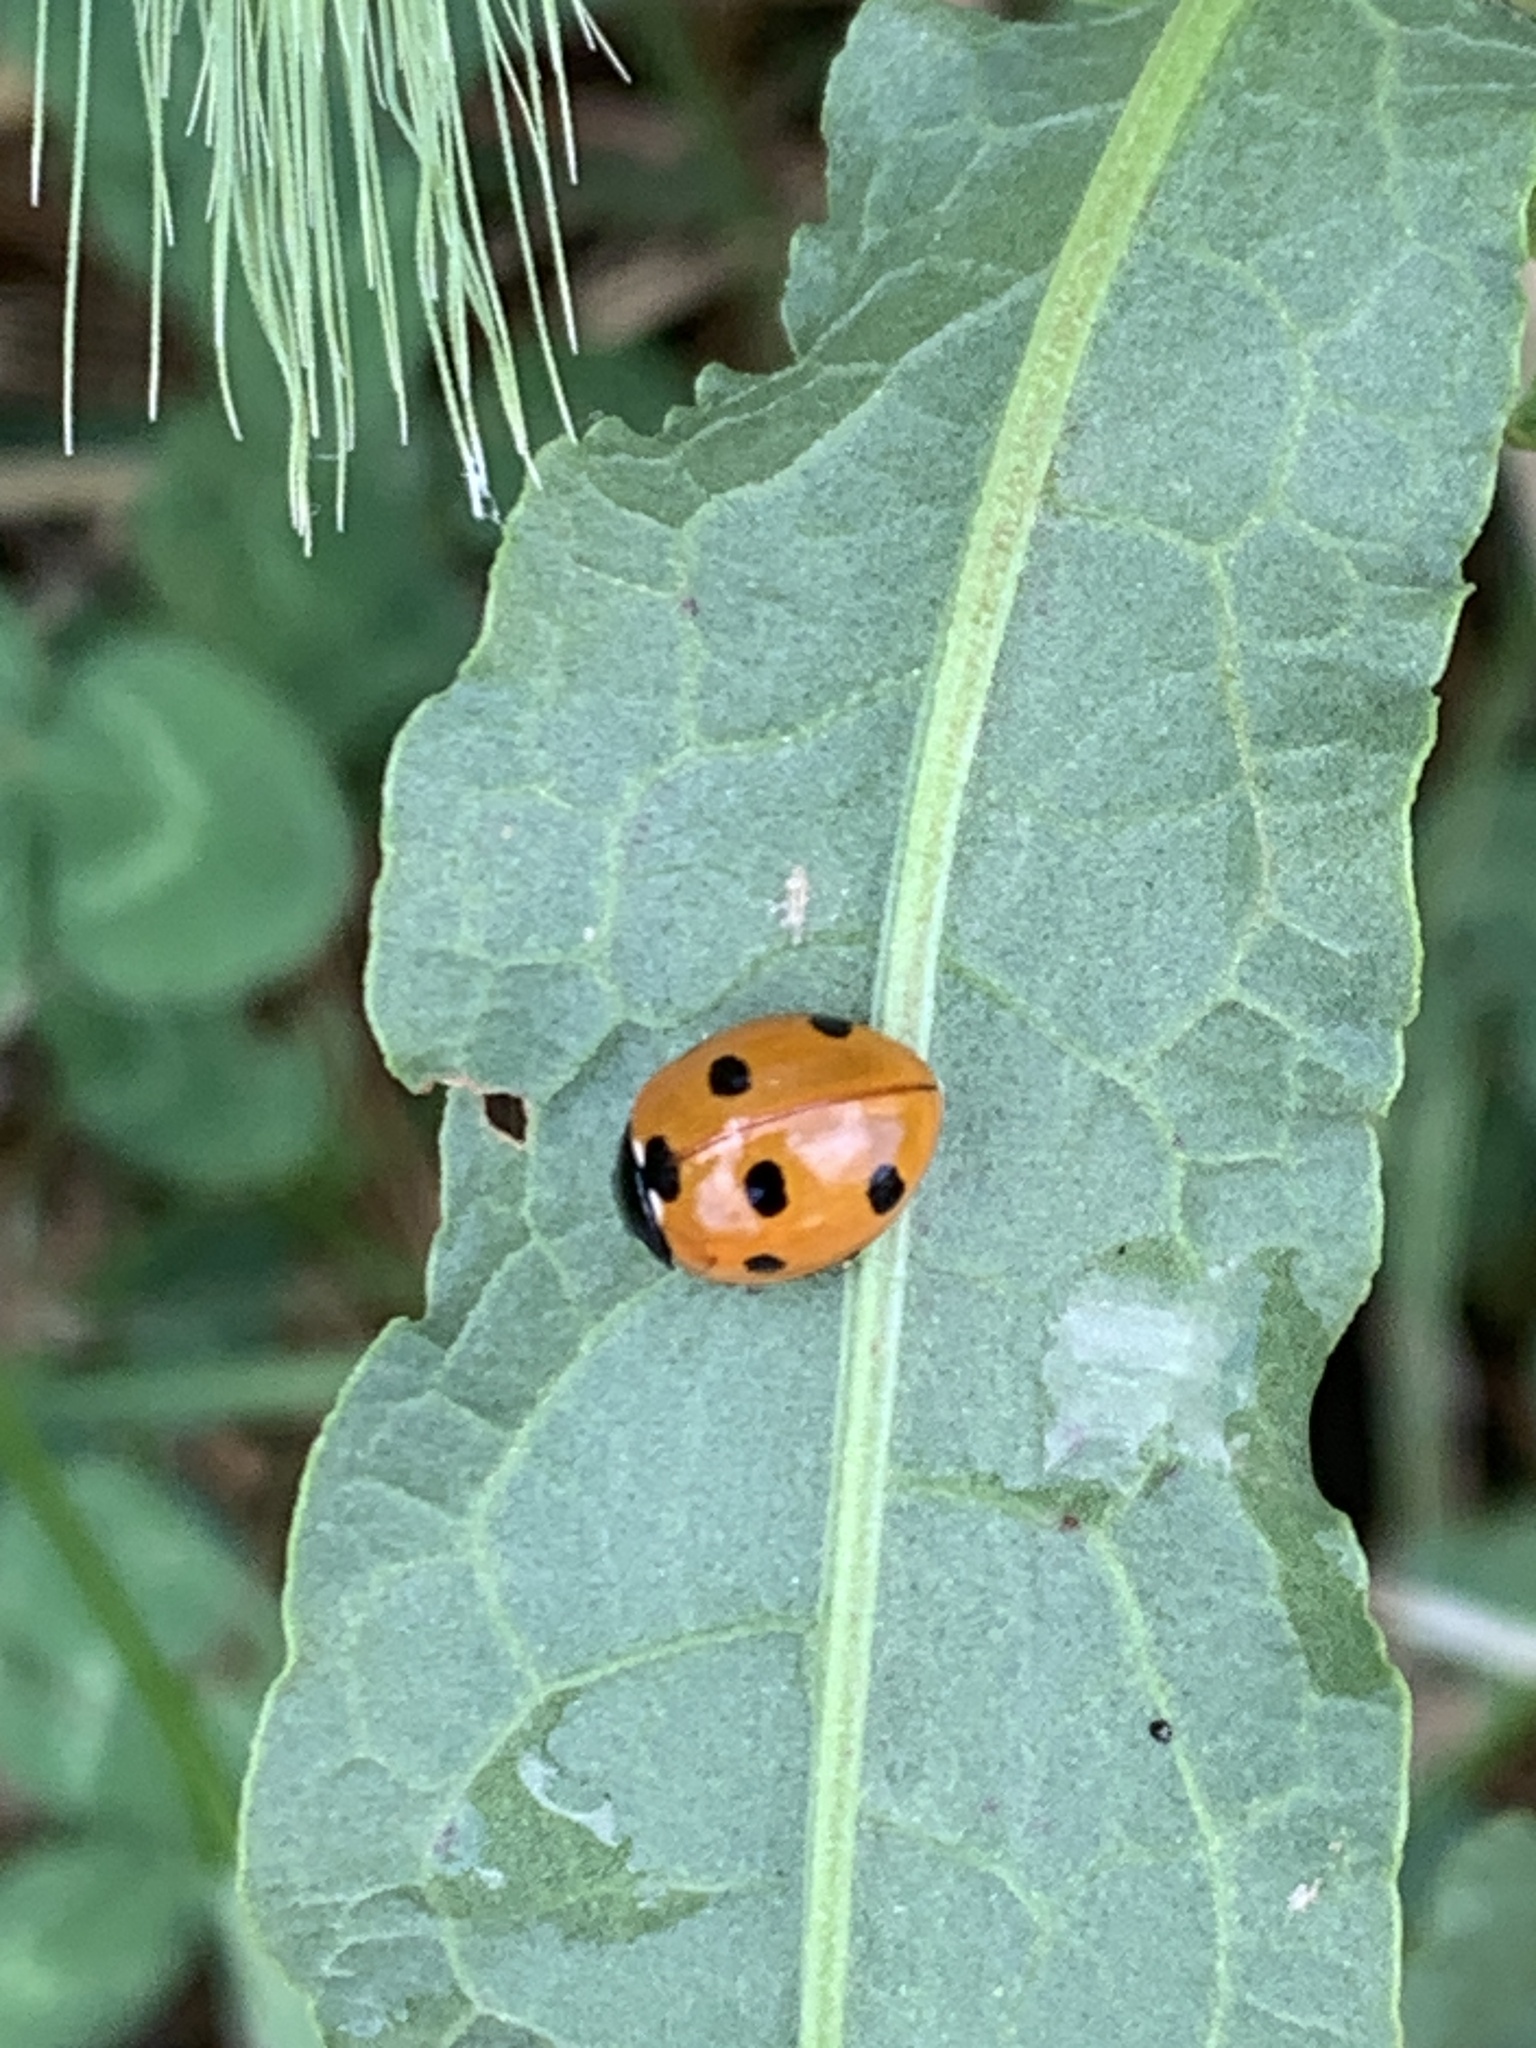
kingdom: Animalia
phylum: Arthropoda
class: Insecta
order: Coleoptera
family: Coccinellidae
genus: Coccinella
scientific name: Coccinella septempunctata
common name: Sevenspotted lady beetle
